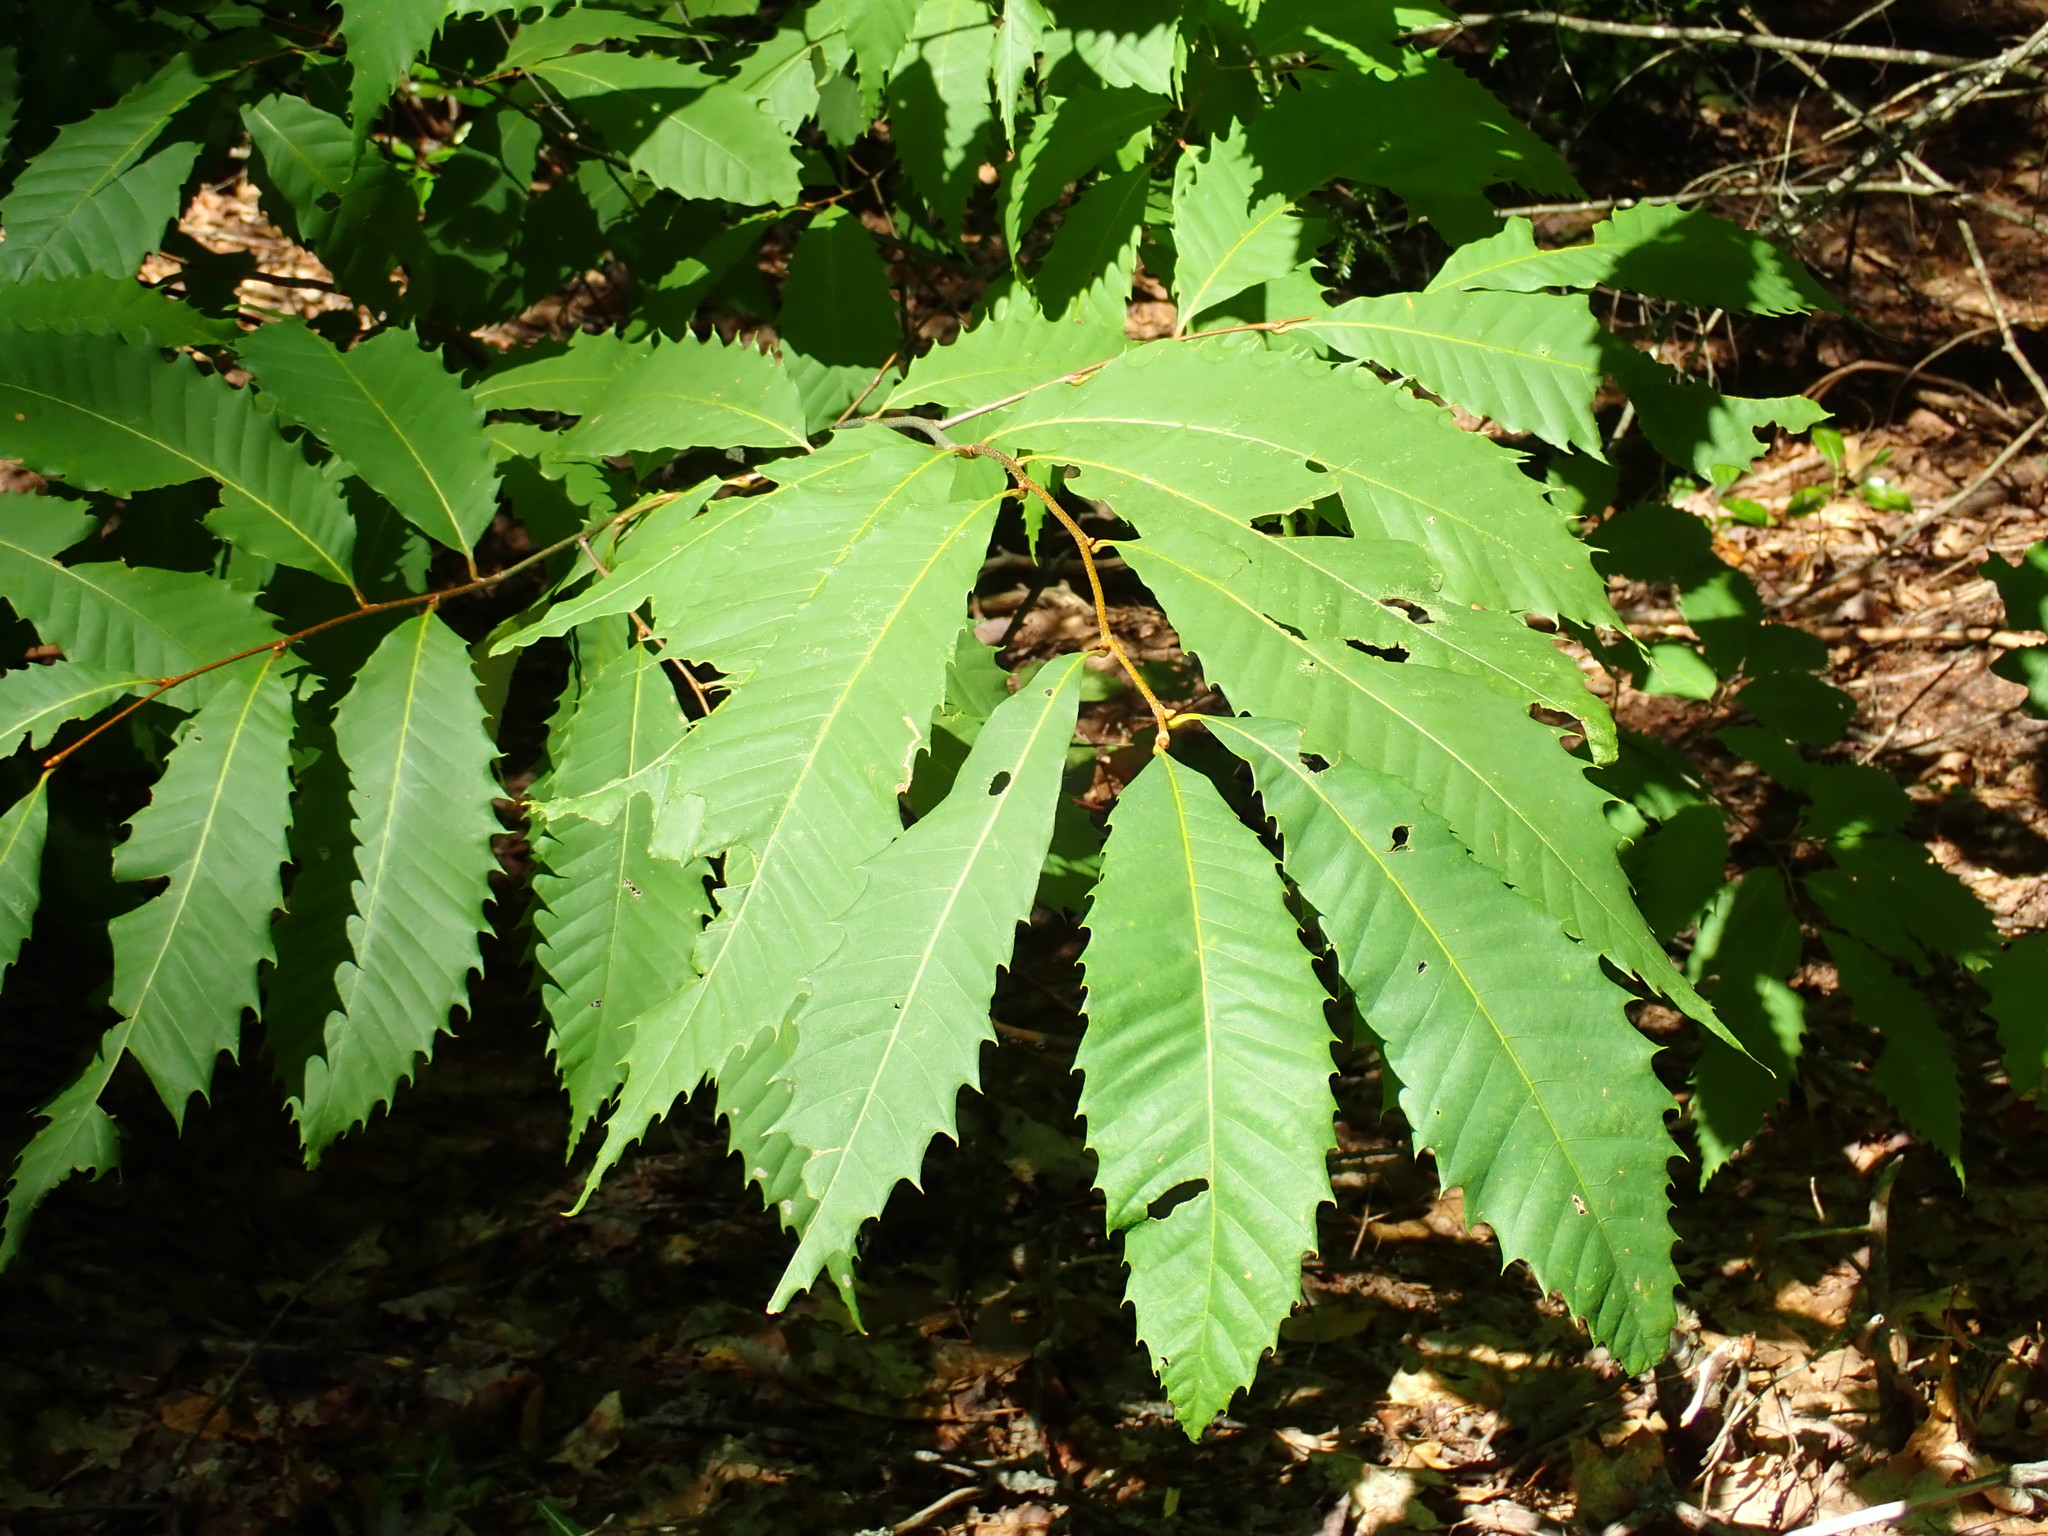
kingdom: Plantae
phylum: Tracheophyta
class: Magnoliopsida
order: Fagales
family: Fagaceae
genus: Castanea
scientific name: Castanea dentata
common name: American chestnut
